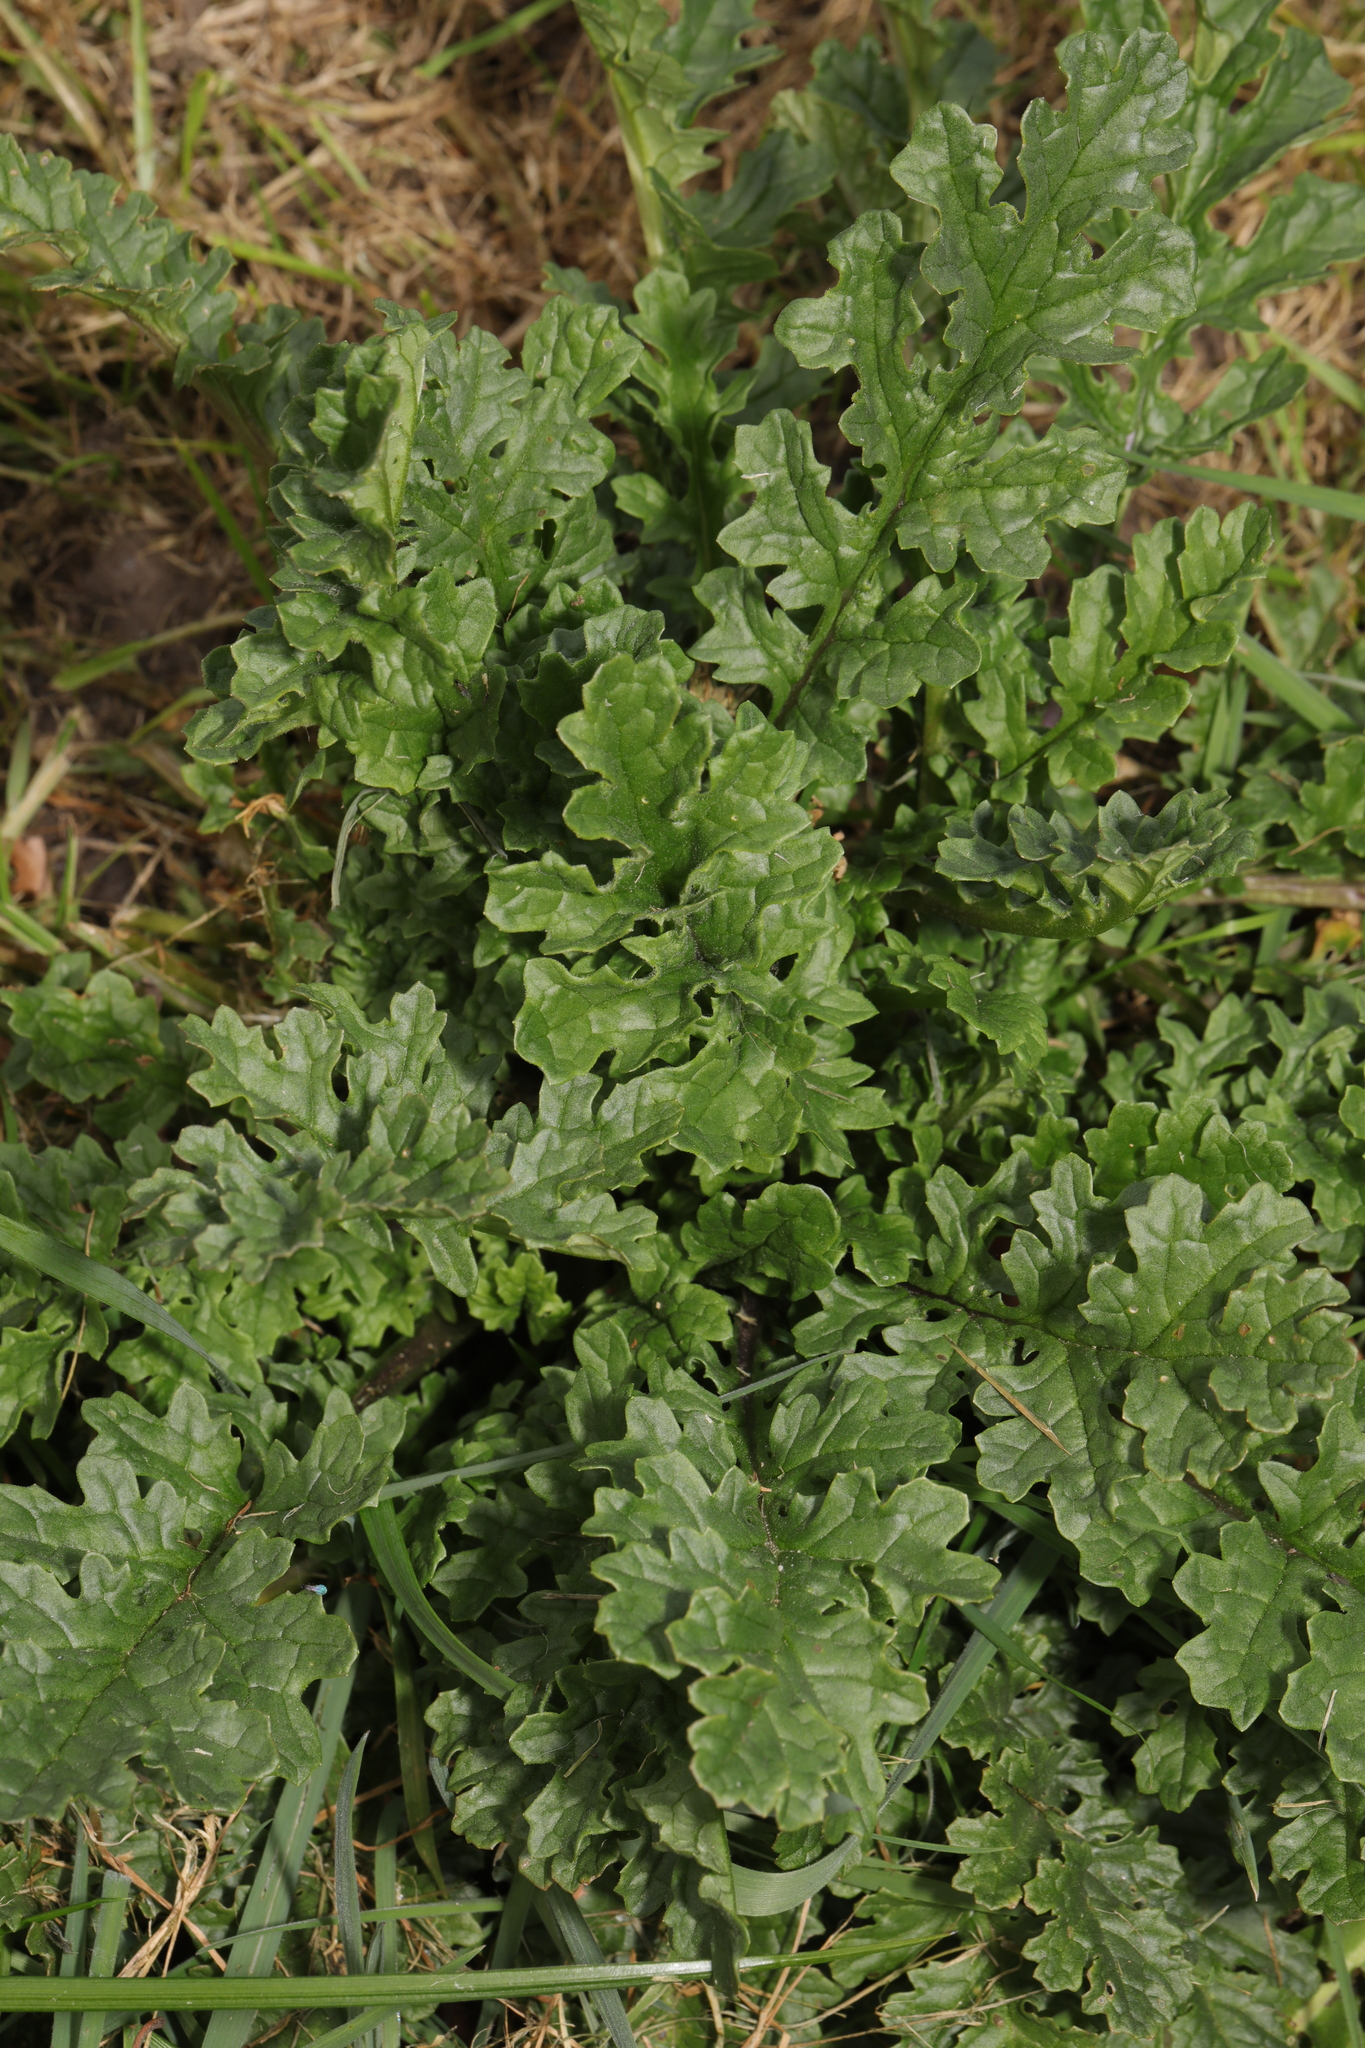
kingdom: Plantae
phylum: Tracheophyta
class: Magnoliopsida
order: Asterales
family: Asteraceae
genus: Jacobaea
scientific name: Jacobaea vulgaris
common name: Stinking willie
